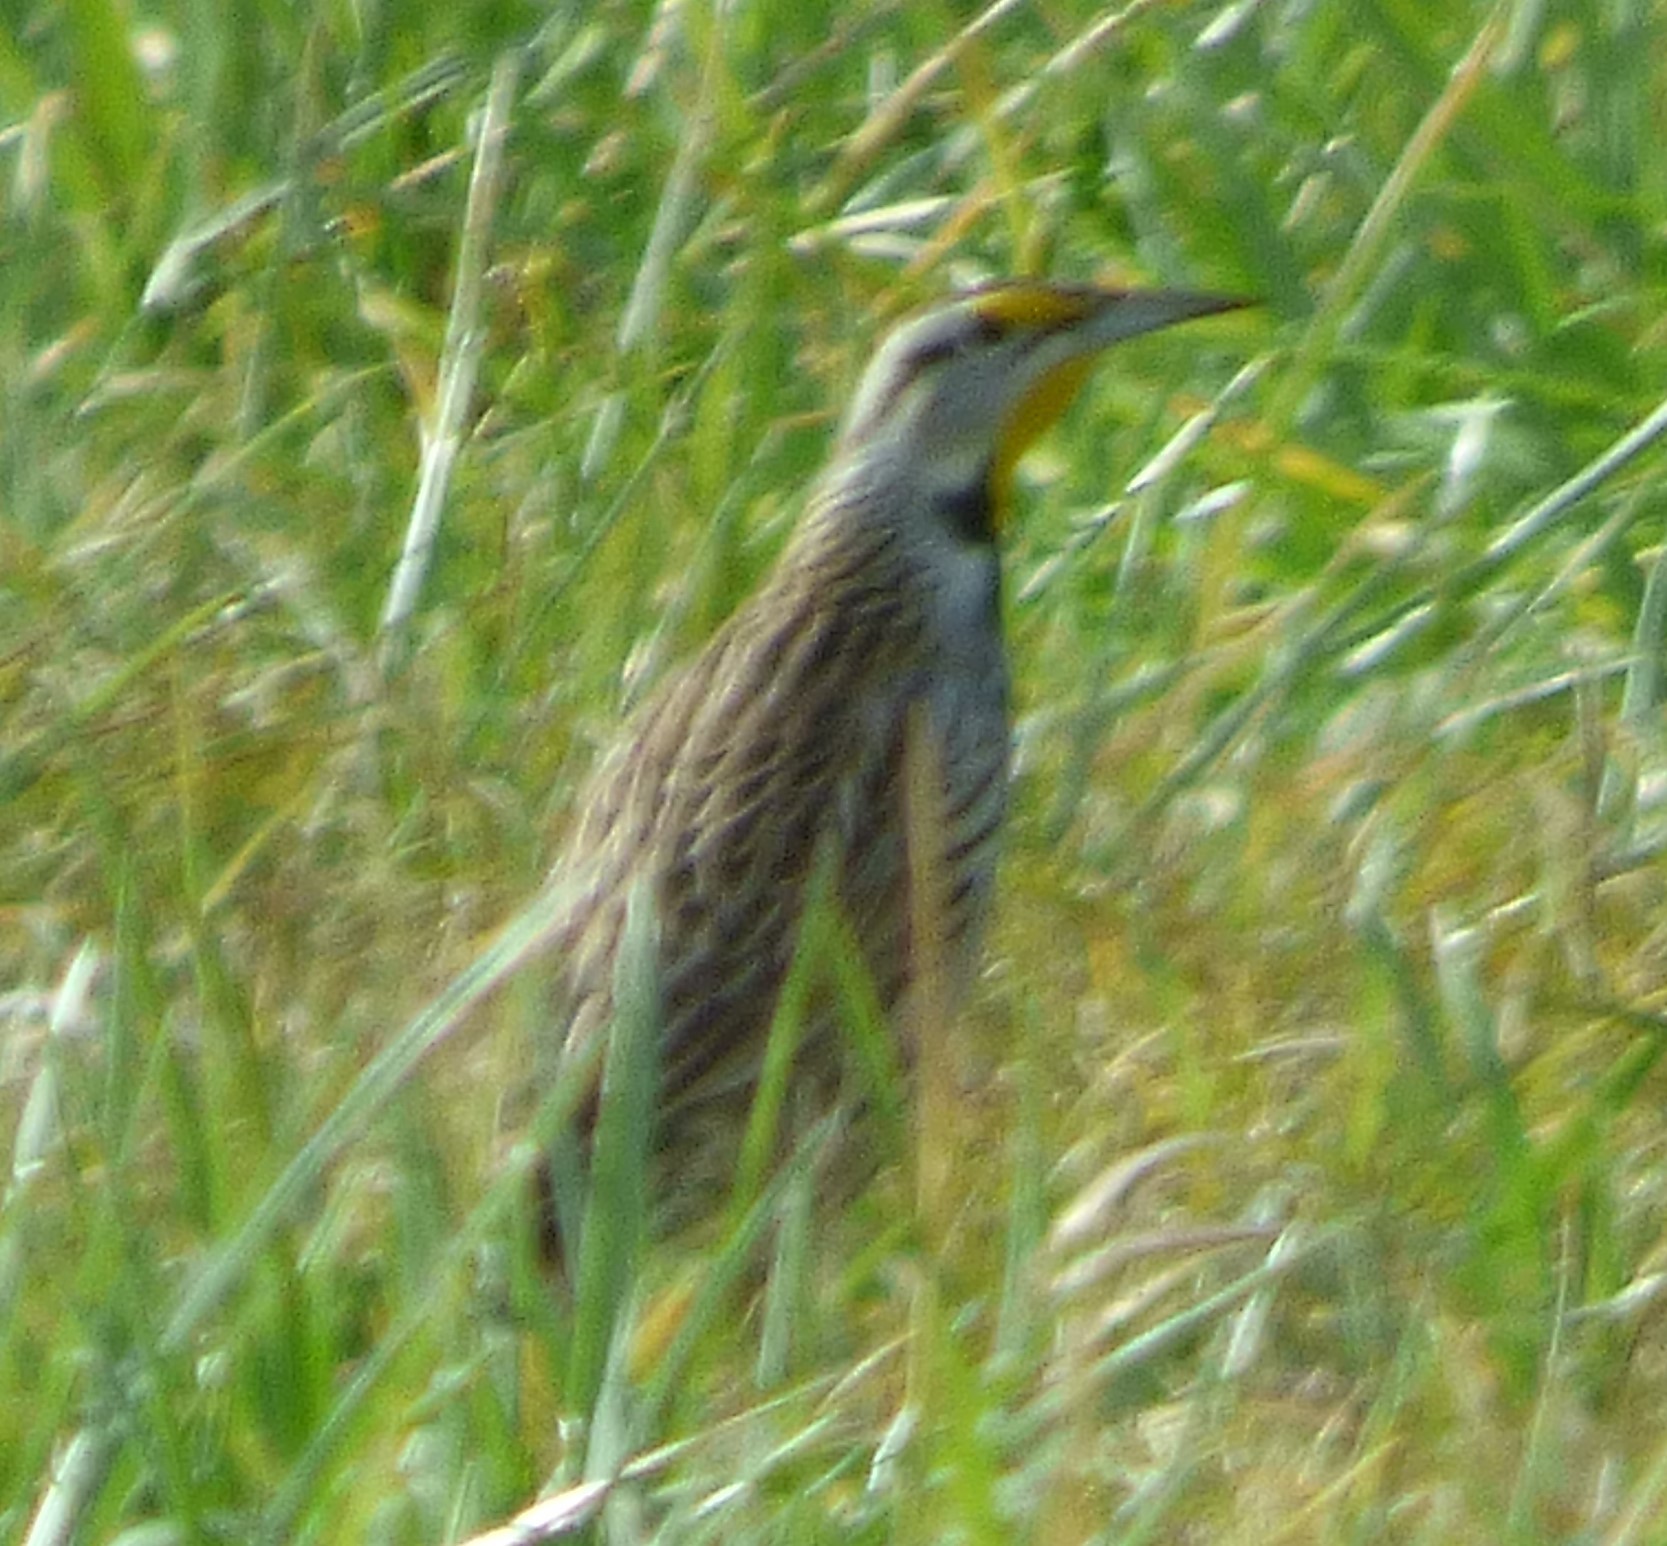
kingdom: Animalia
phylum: Chordata
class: Aves
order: Passeriformes
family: Icteridae
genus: Sturnella
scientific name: Sturnella magna
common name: Eastern meadowlark
